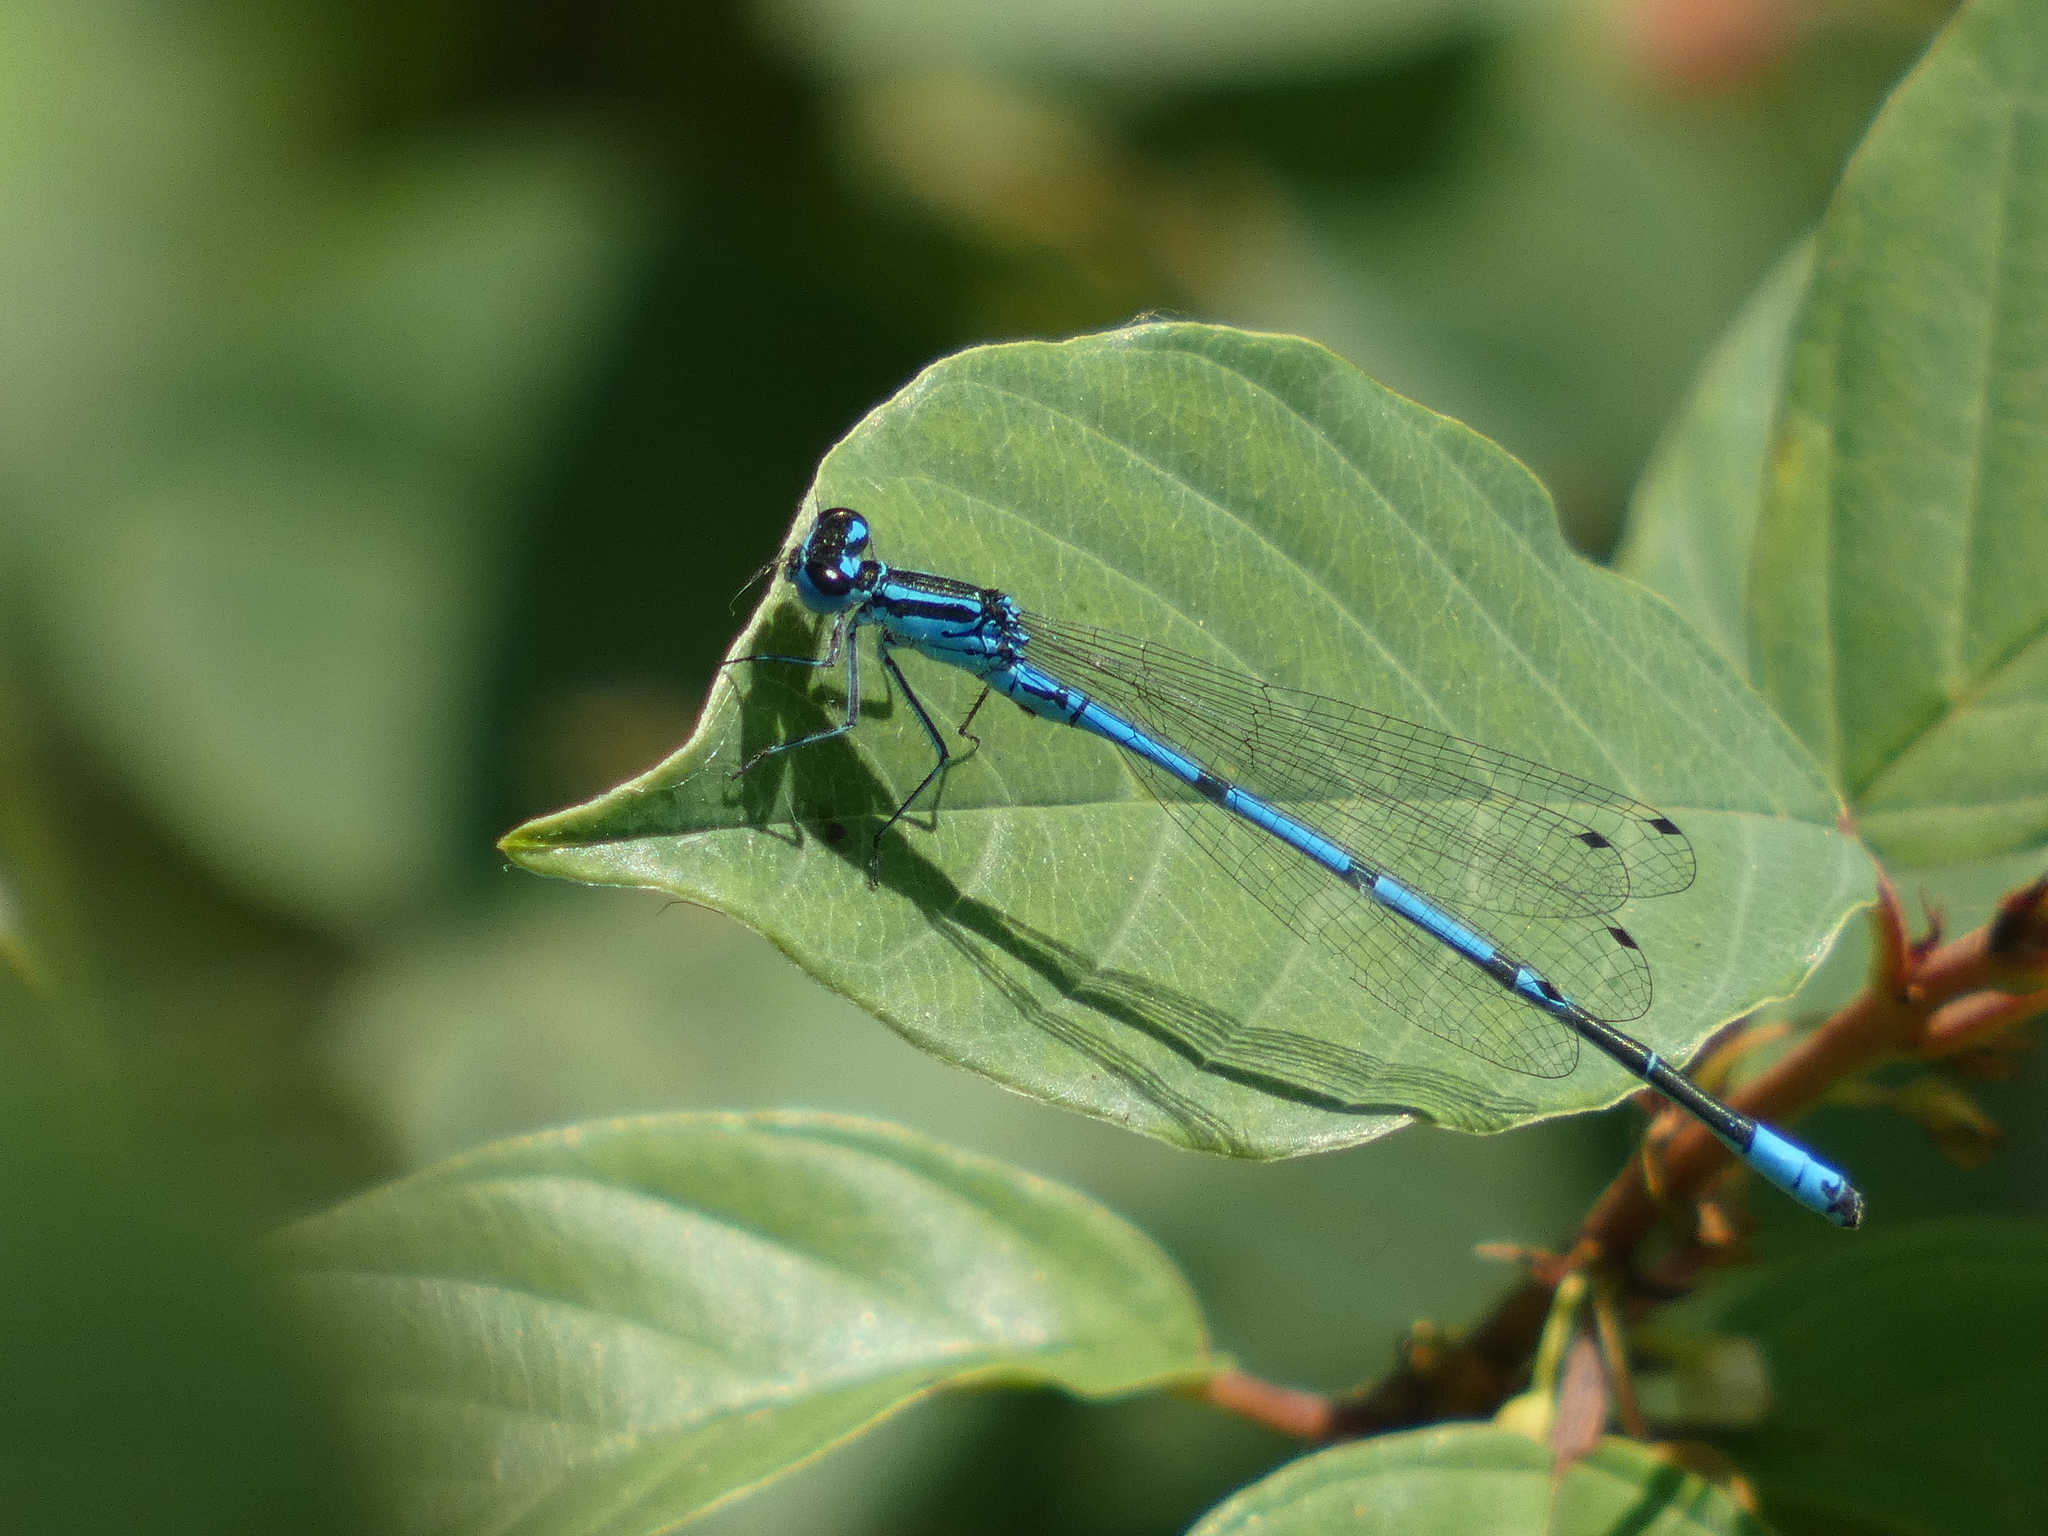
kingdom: Animalia
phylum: Arthropoda
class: Insecta
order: Odonata
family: Coenagrionidae
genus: Coenagrion
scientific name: Coenagrion puella
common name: Azure damselfly
